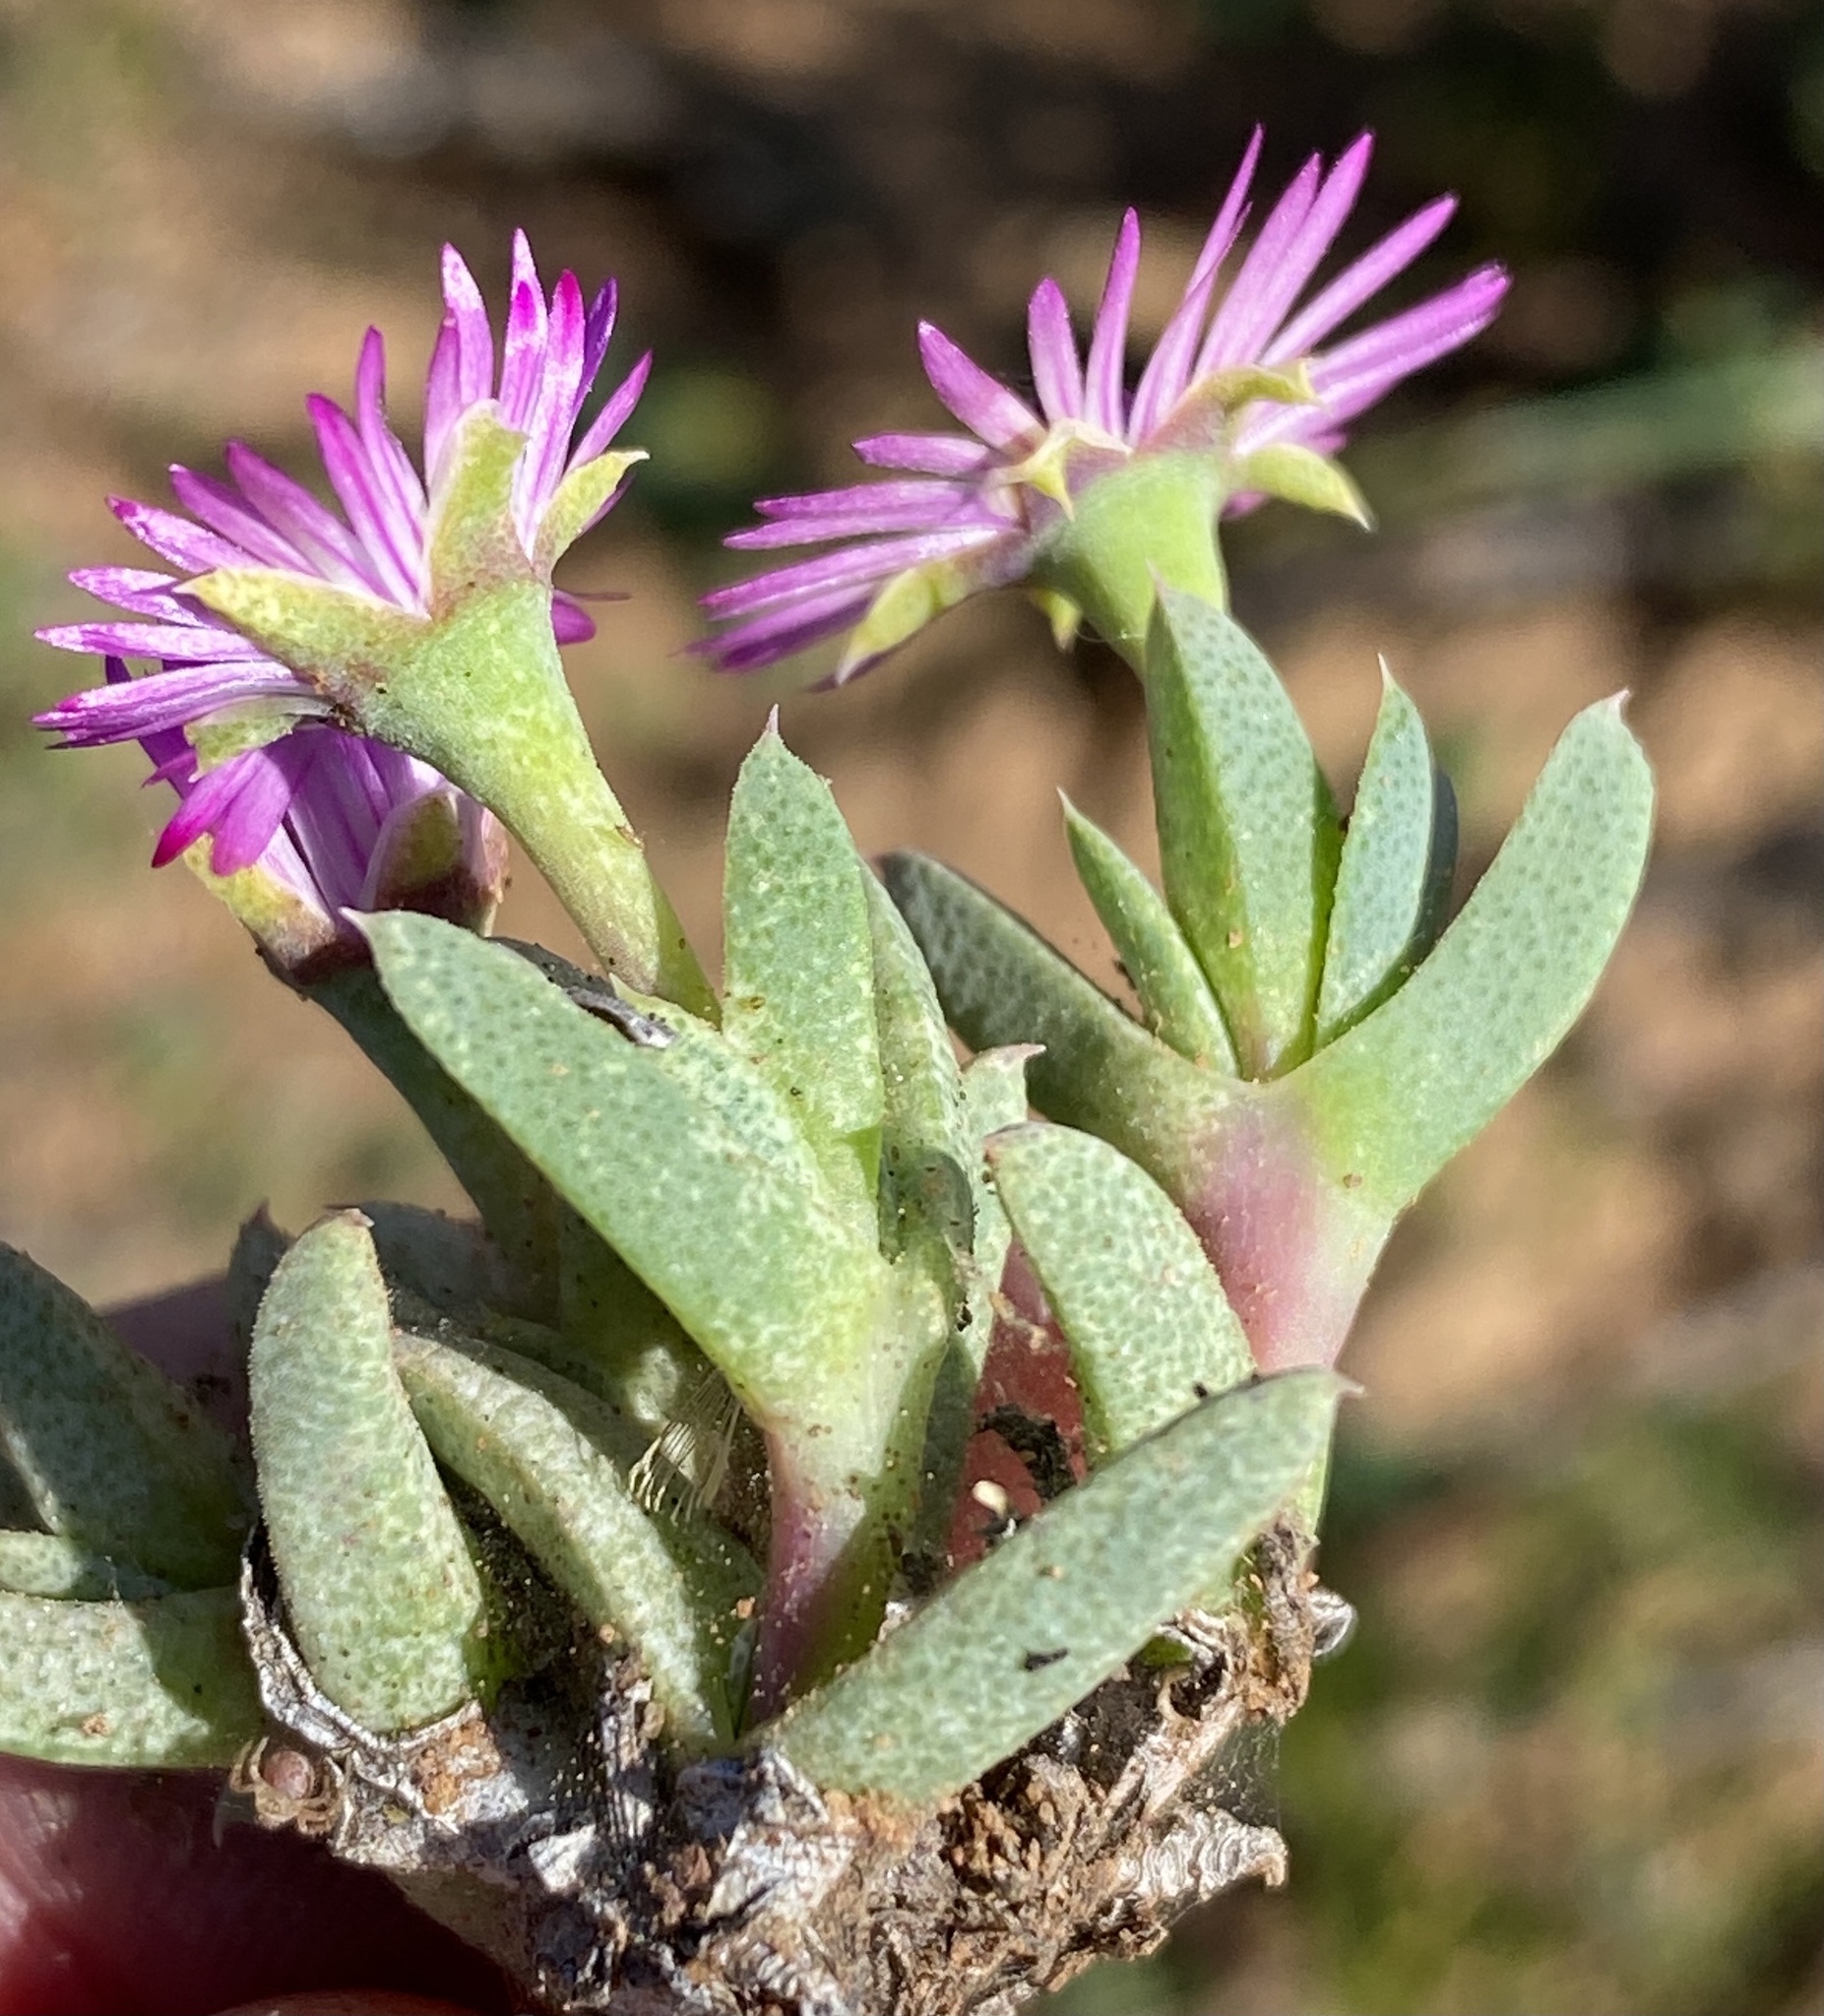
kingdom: Plantae
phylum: Tracheophyta
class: Magnoliopsida
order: Caryophyllales
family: Aizoaceae
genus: Antimima
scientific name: Antimima leipoldtii
